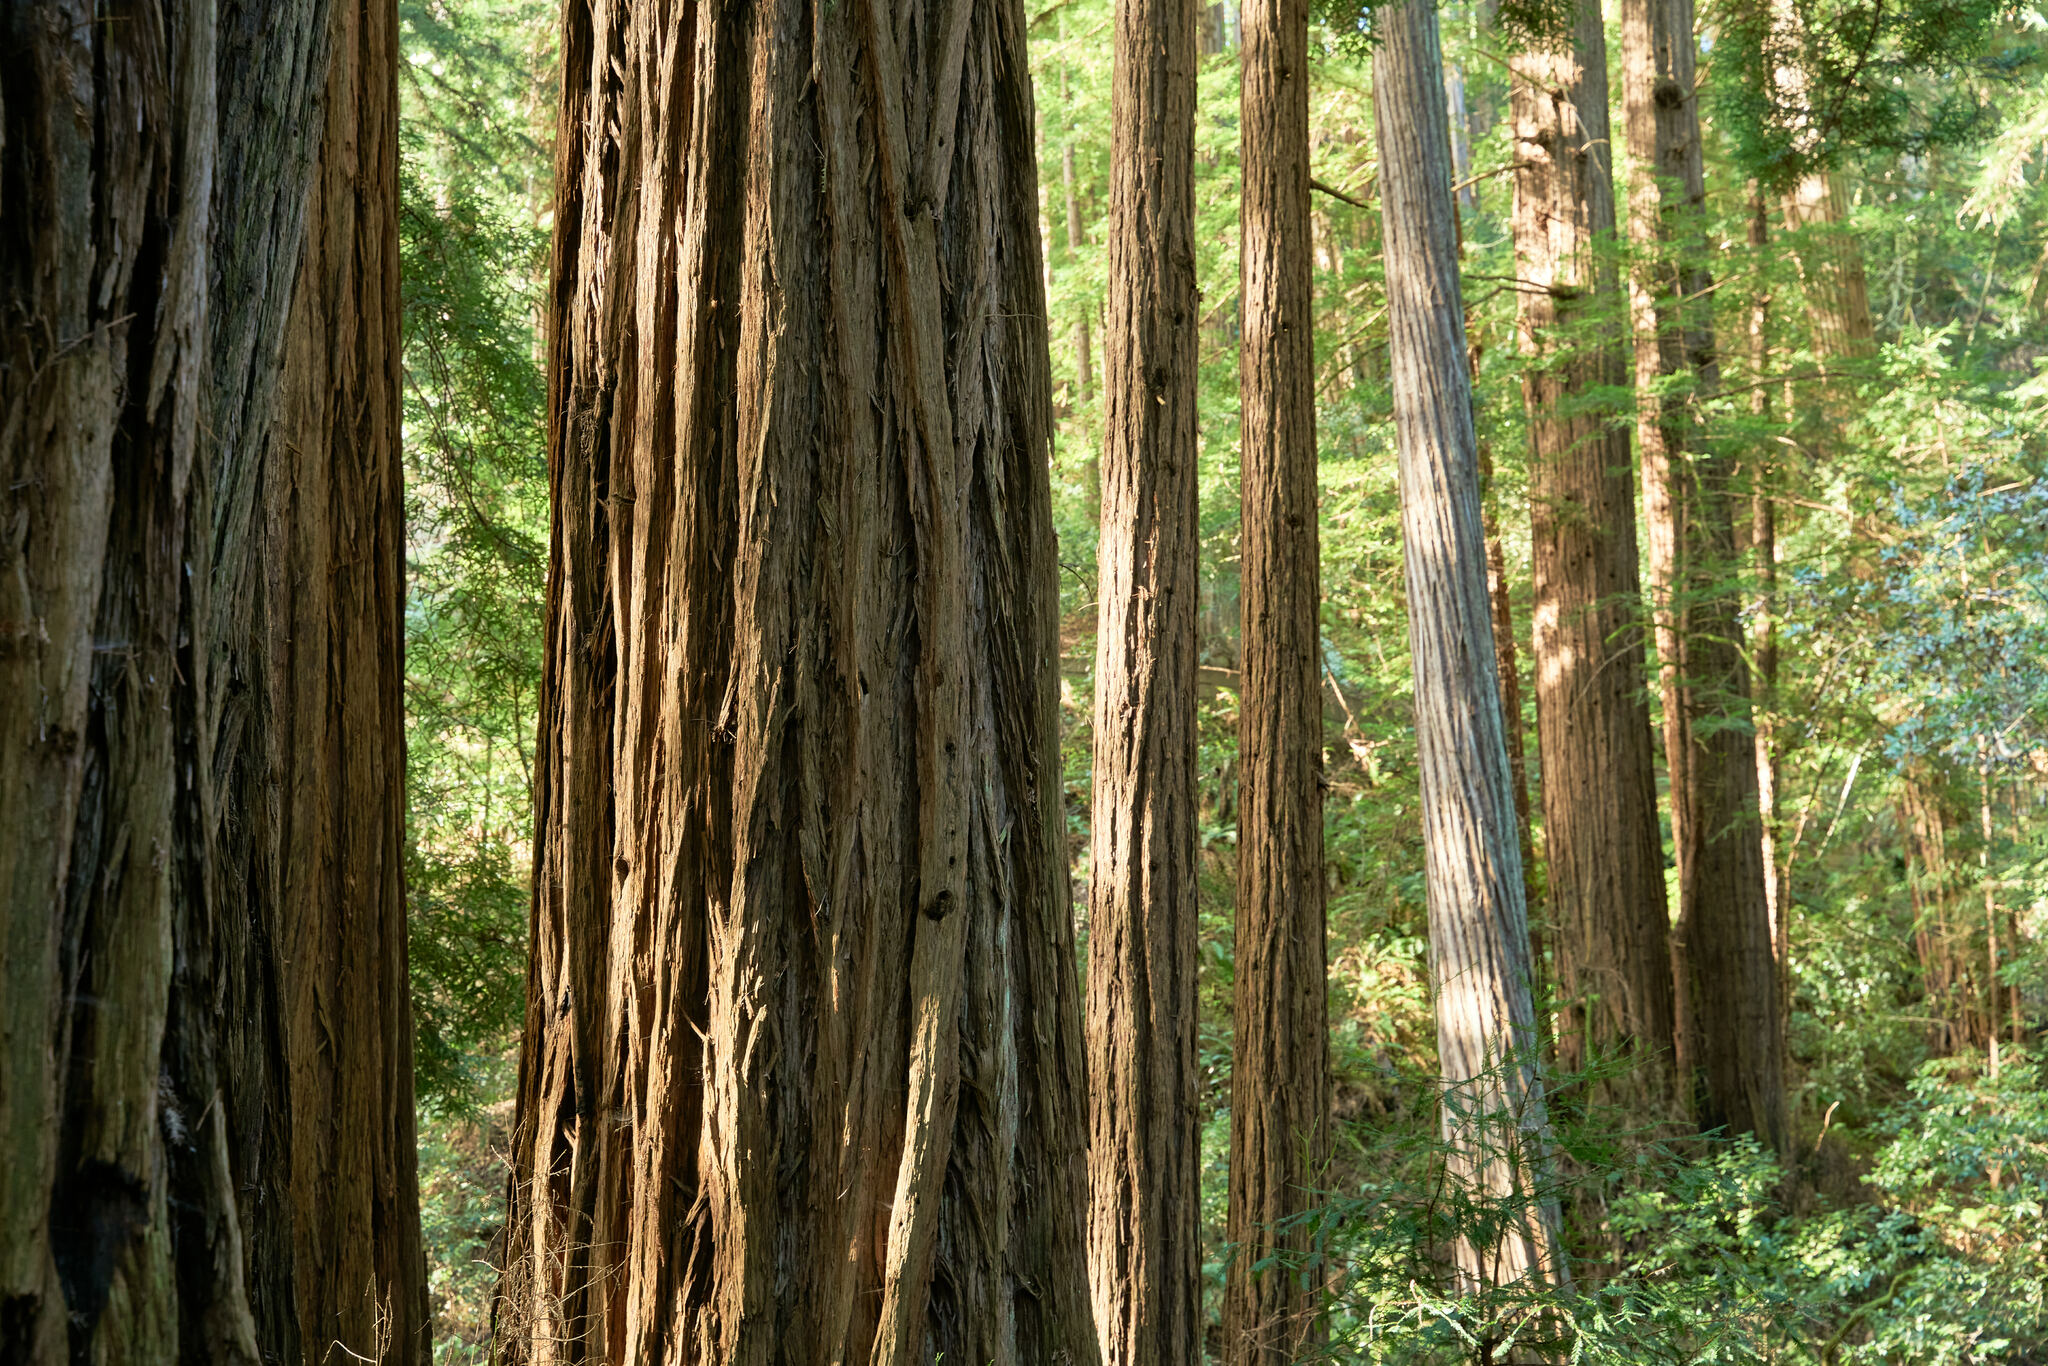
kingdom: Plantae
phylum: Tracheophyta
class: Pinopsida
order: Pinales
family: Cupressaceae
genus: Sequoia
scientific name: Sequoia sempervirens
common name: Coast redwood
